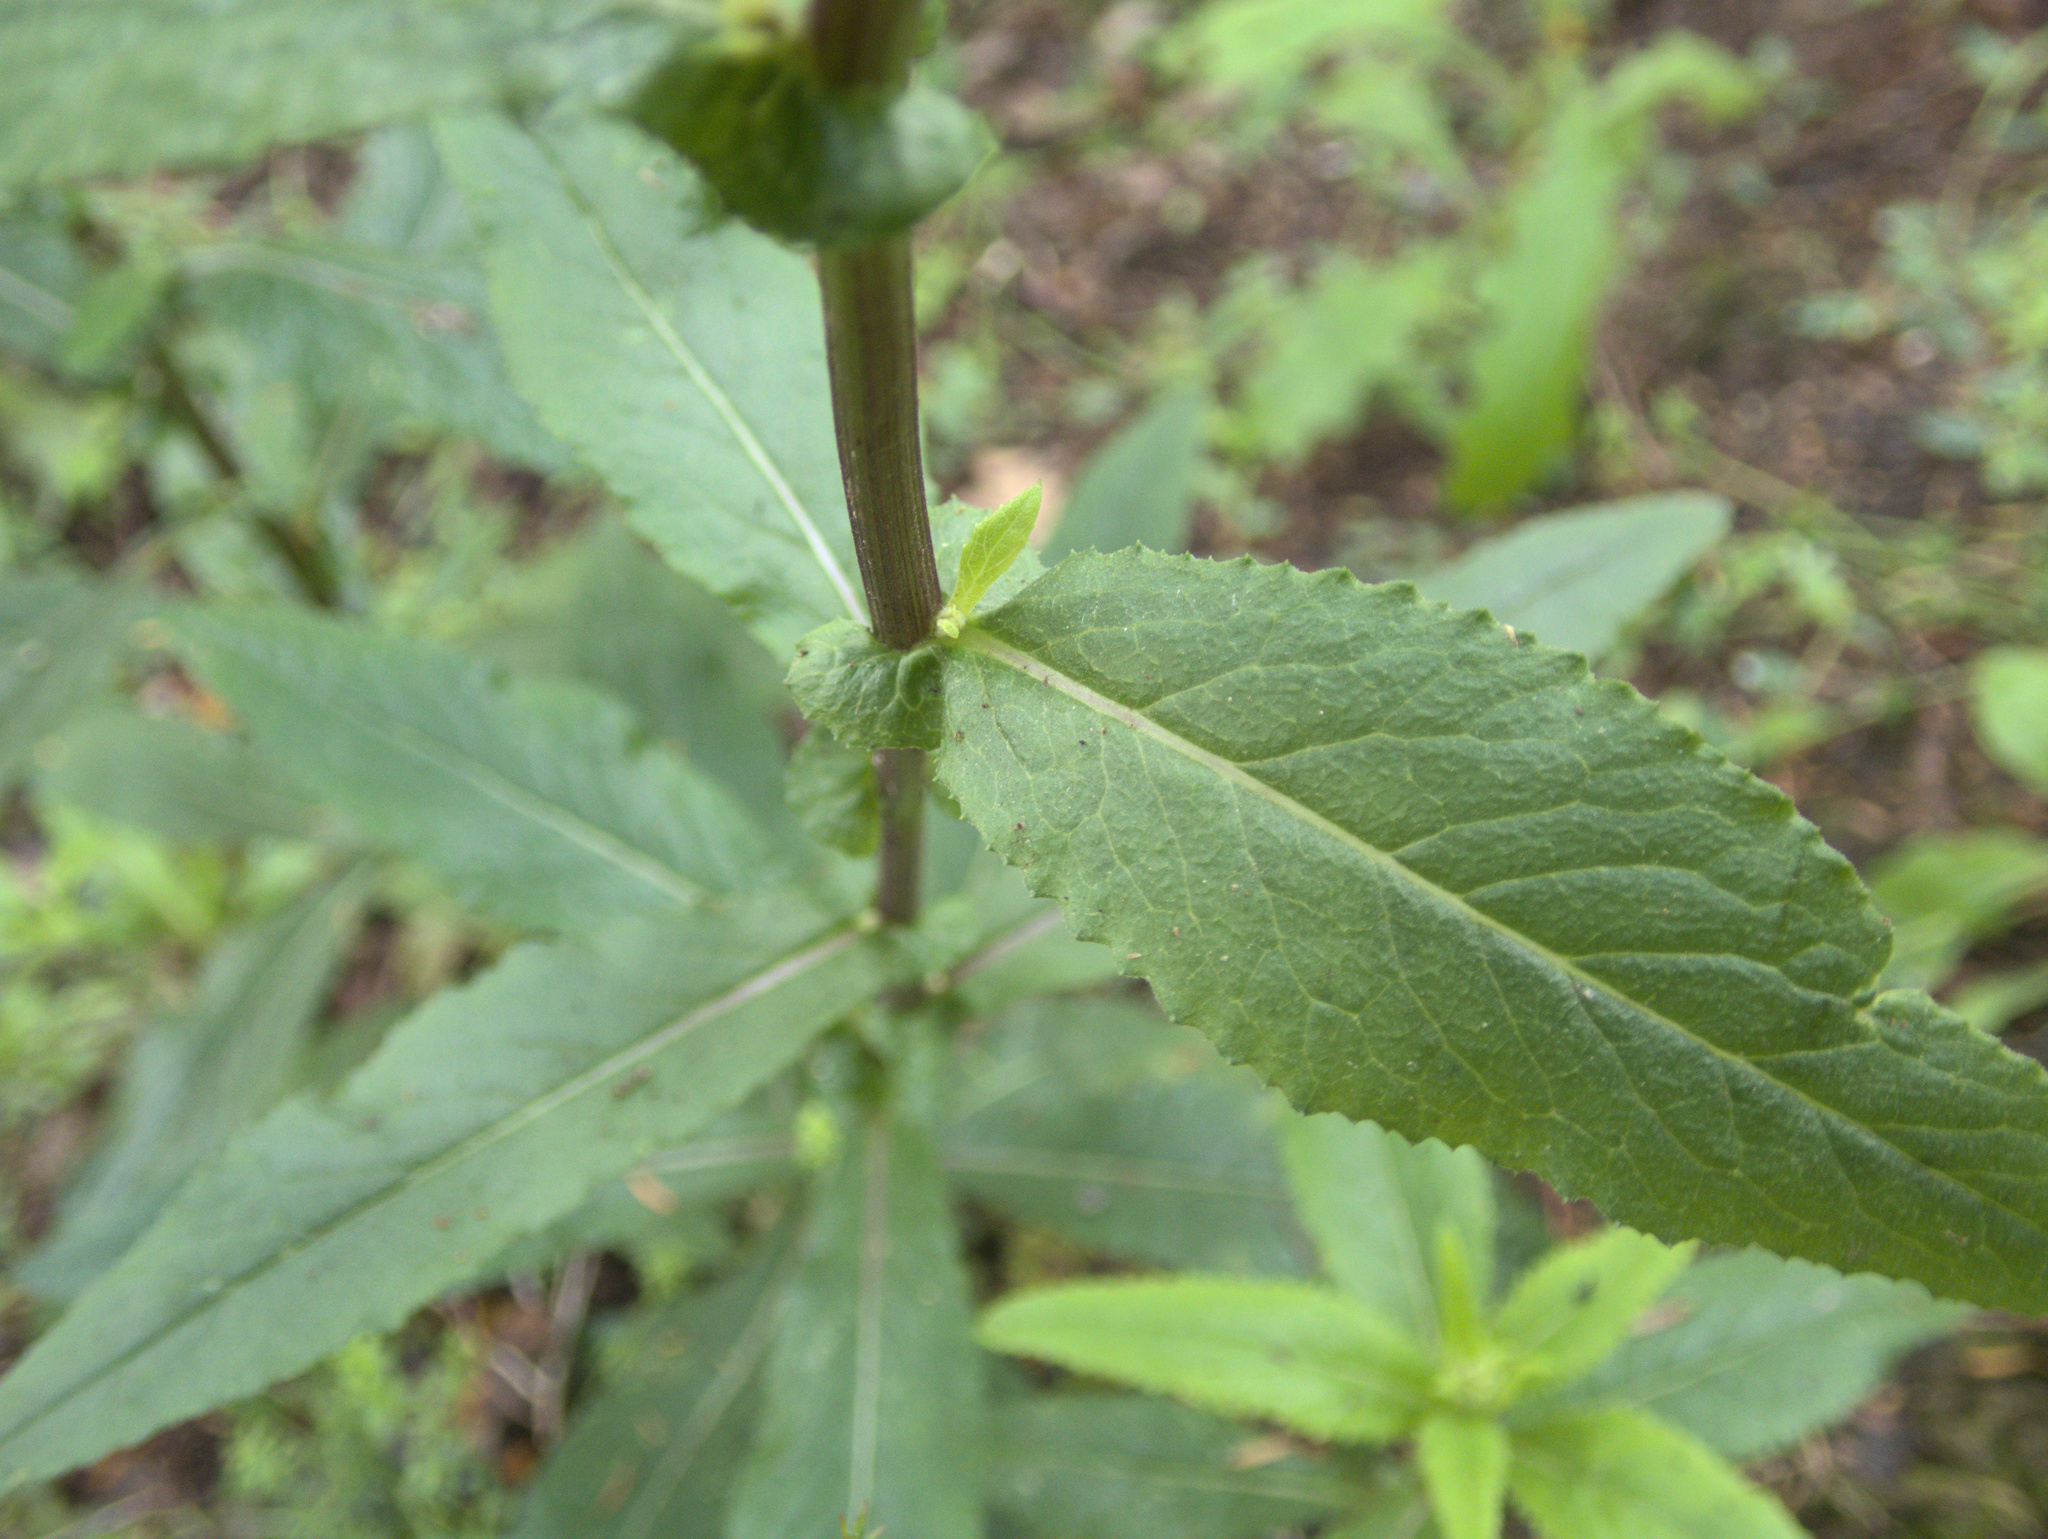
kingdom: Plantae
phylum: Tracheophyta
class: Magnoliopsida
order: Asterales
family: Asteraceae
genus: Senecio
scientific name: Senecio minimus
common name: Toothed fireweed
